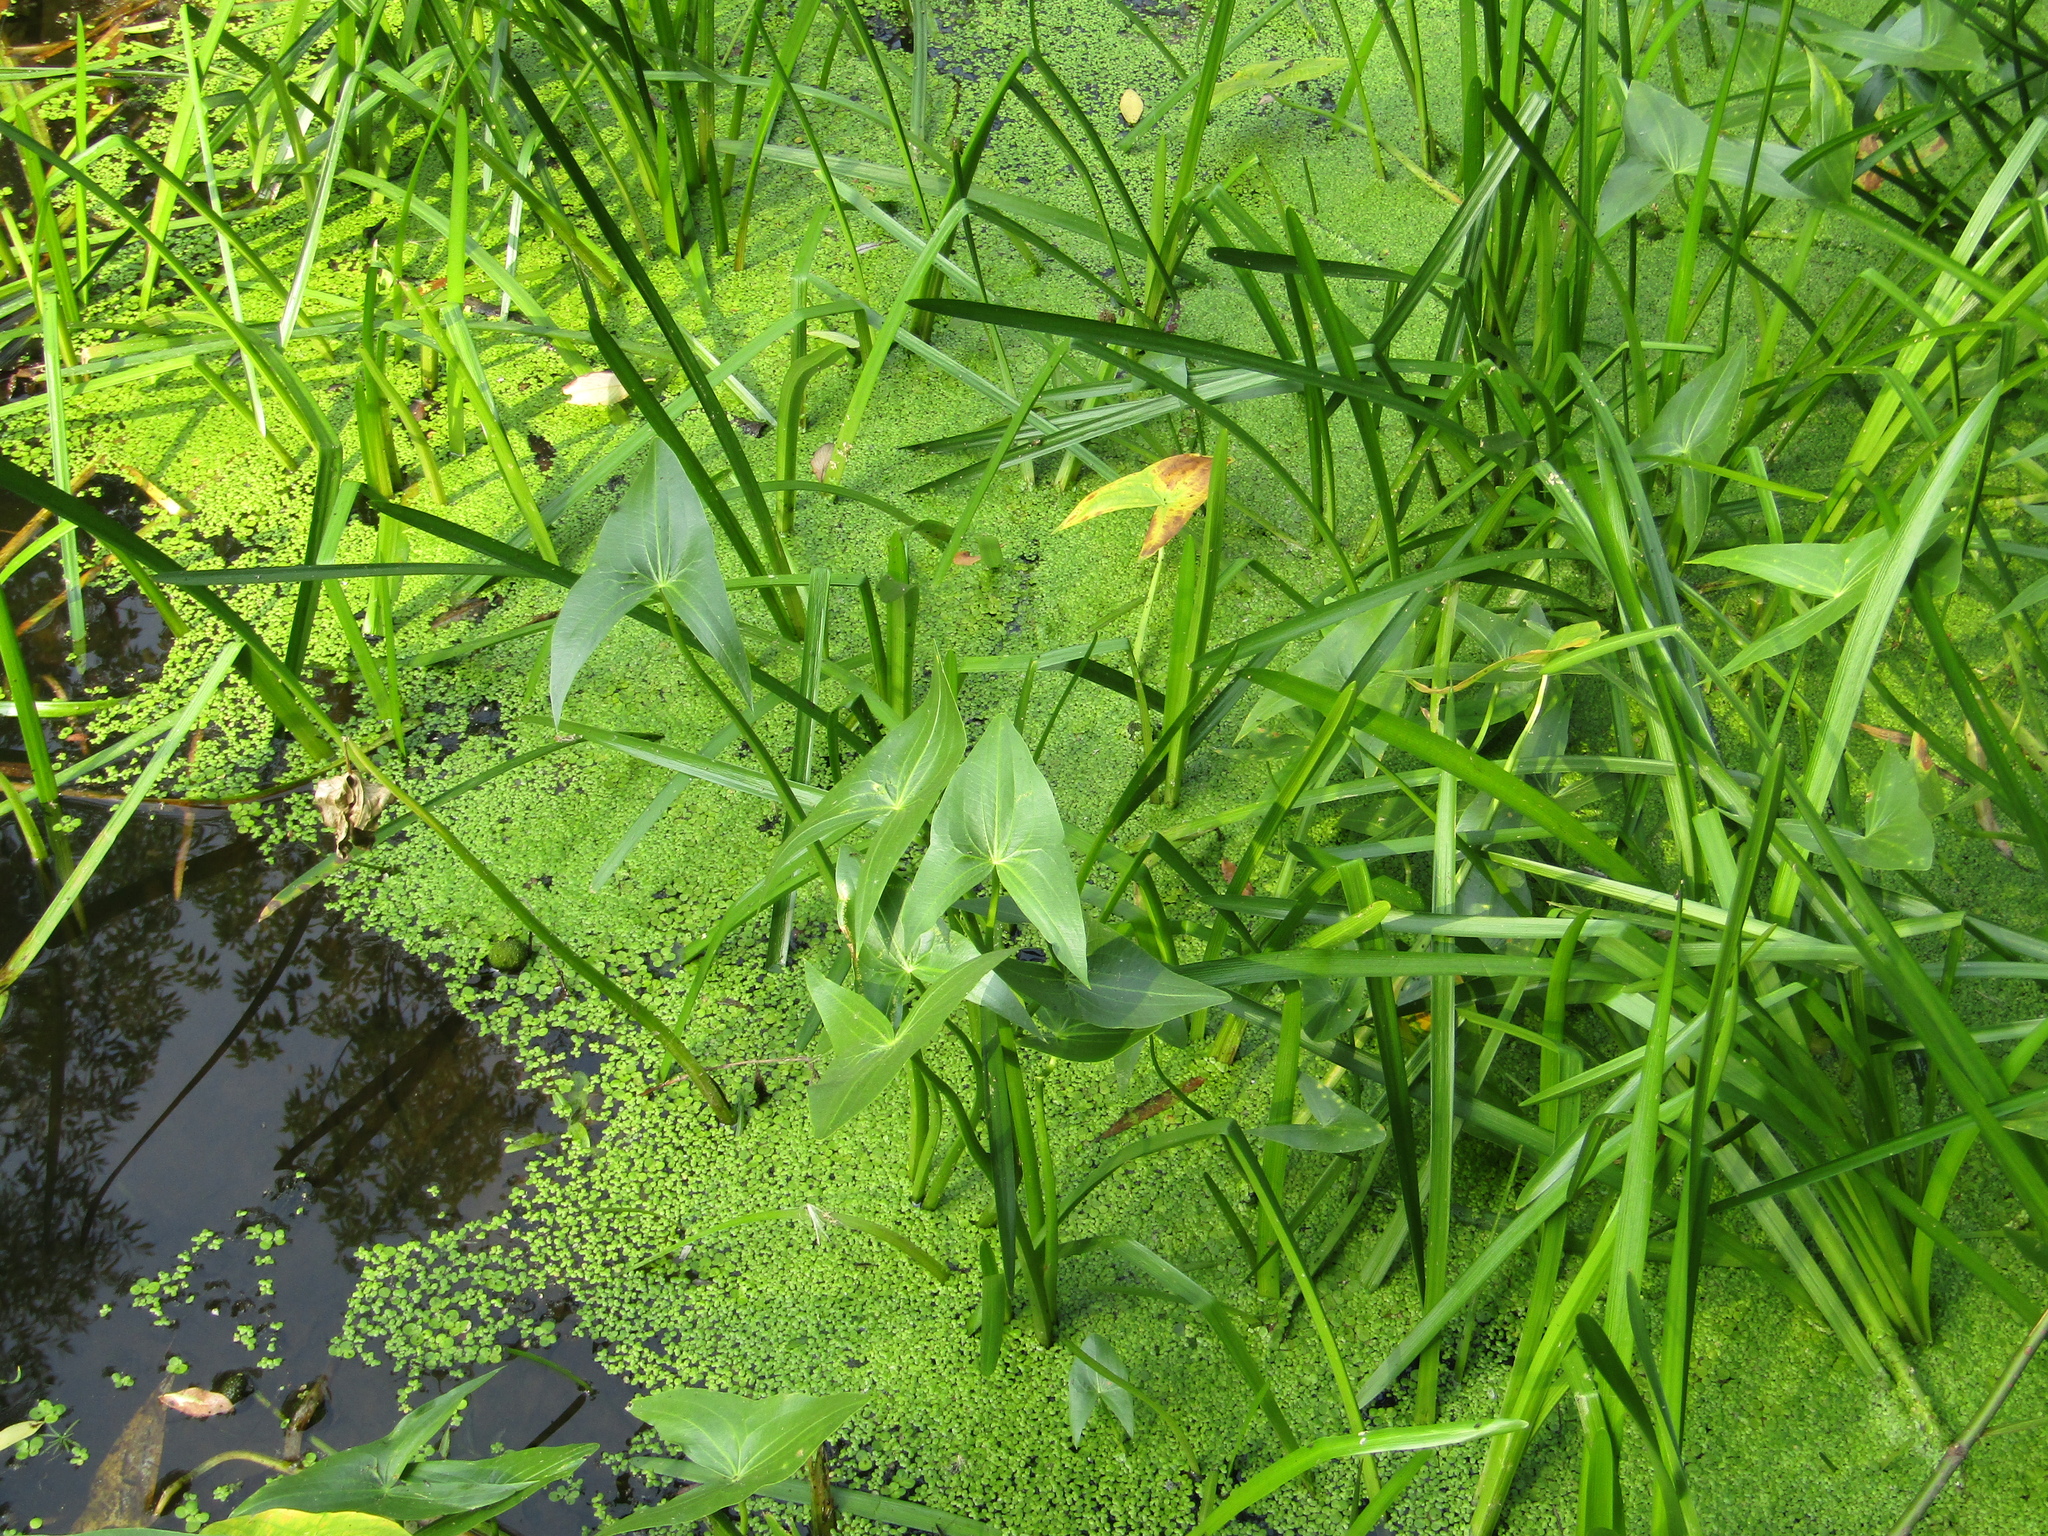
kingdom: Plantae
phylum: Tracheophyta
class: Liliopsida
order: Alismatales
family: Alismataceae
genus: Sagittaria
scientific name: Sagittaria sagittifolia
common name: Arrowhead
